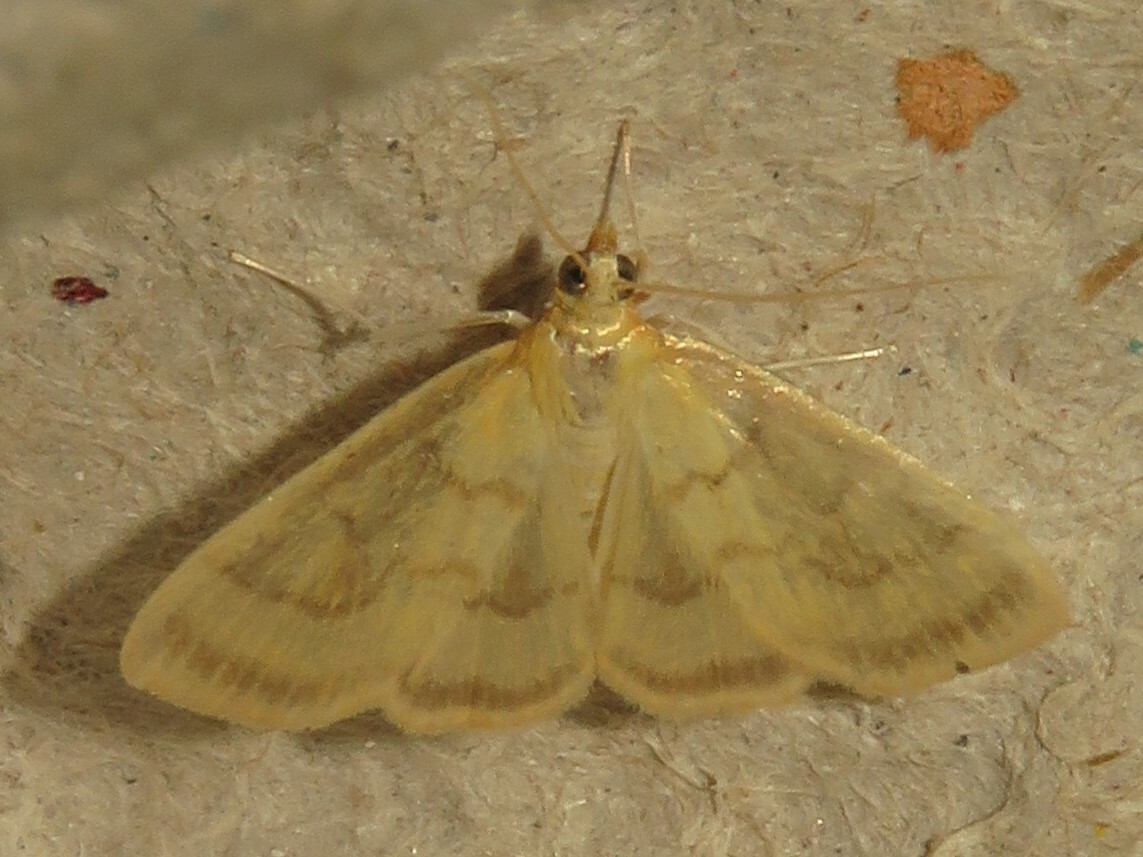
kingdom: Animalia
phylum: Arthropoda
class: Insecta
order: Lepidoptera
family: Crambidae
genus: Crocidophora
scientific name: Crocidophora tuberculalis
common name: Pale-winged crocidiphora moth
